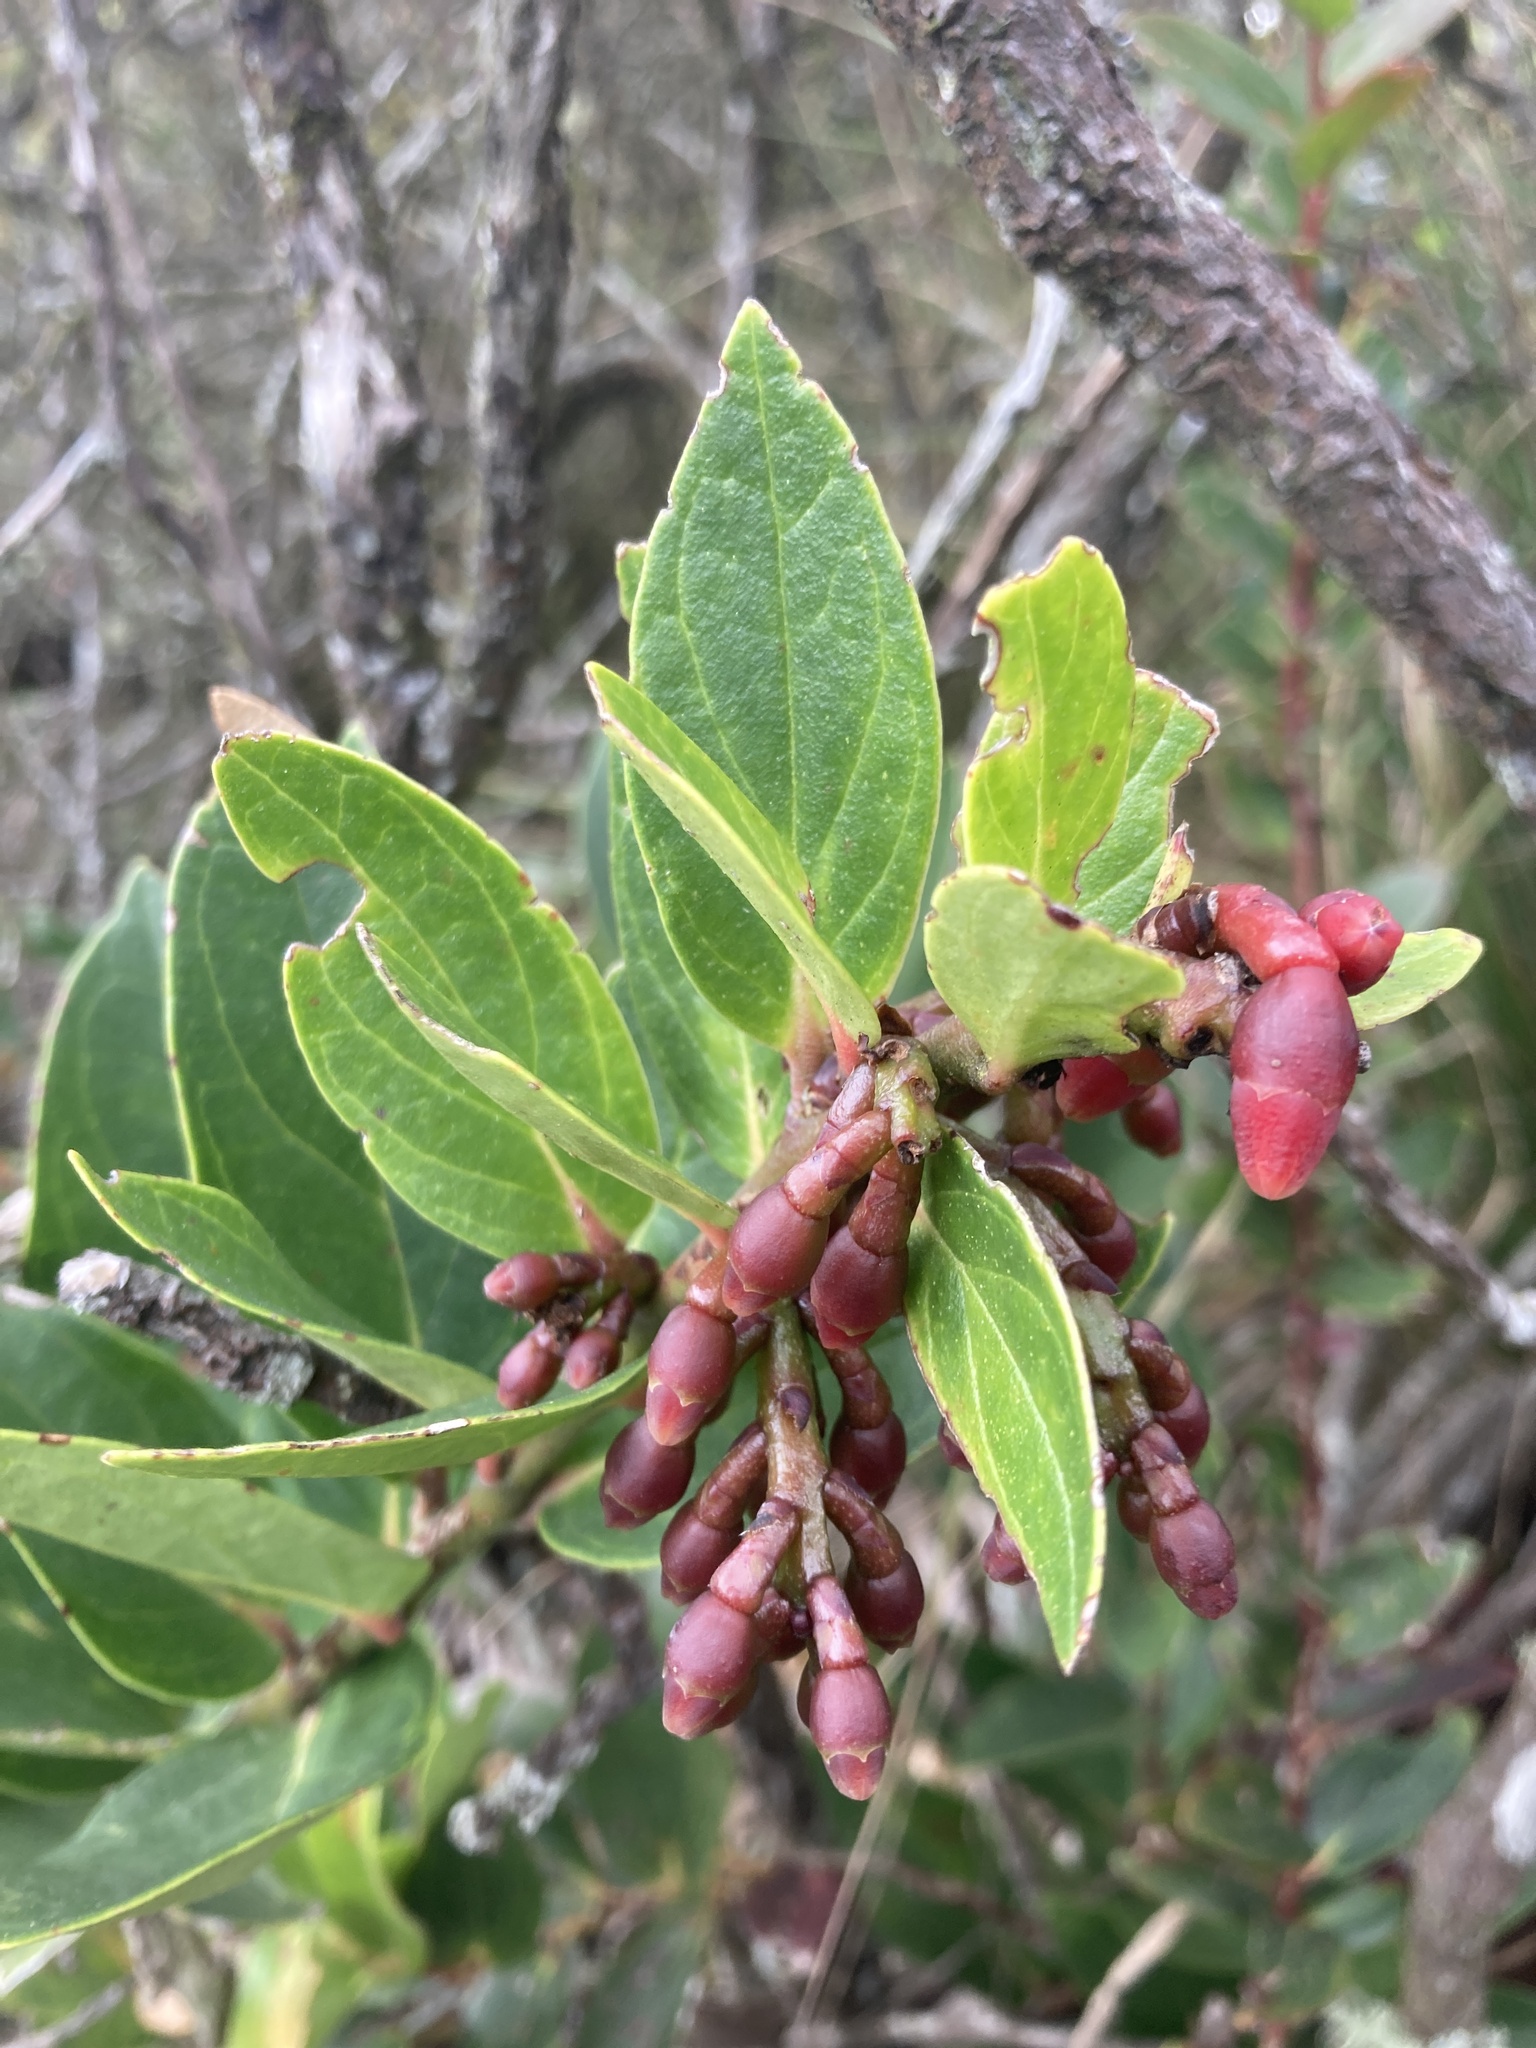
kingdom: Plantae
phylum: Tracheophyta
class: Magnoliopsida
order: Ericales
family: Ericaceae
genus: Macleania
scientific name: Macleania rupestris
